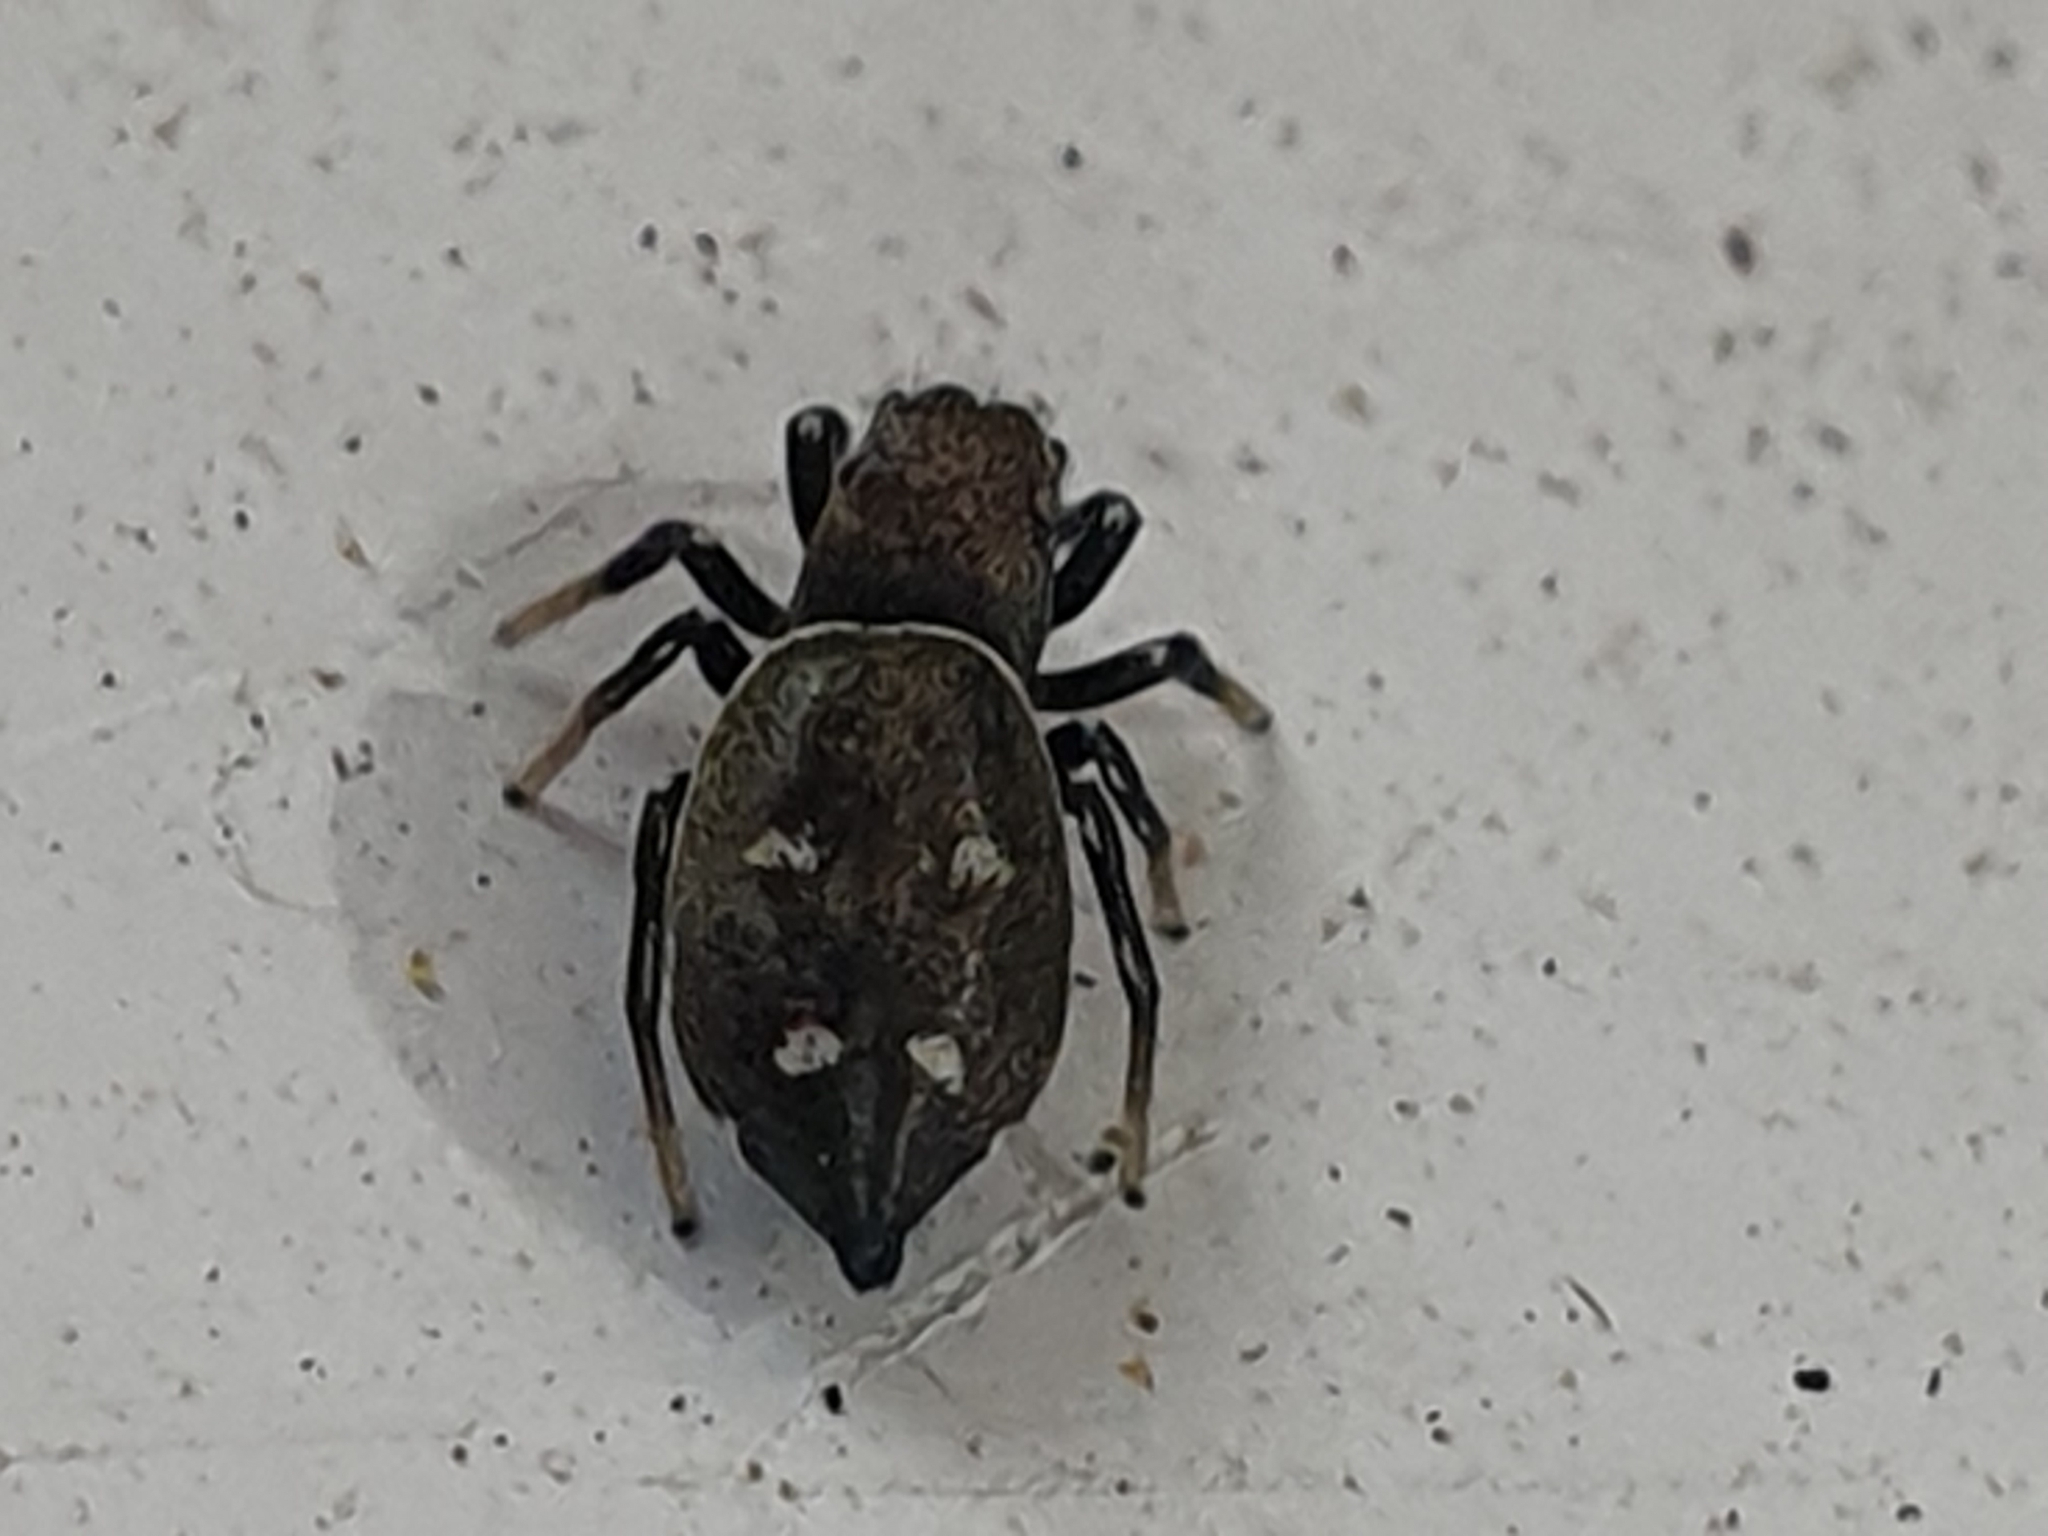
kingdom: Animalia
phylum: Arthropoda
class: Arachnida
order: Araneae
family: Salticidae
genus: Heliophanus
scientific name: Heliophanus kochii
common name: Sun jumping spider
